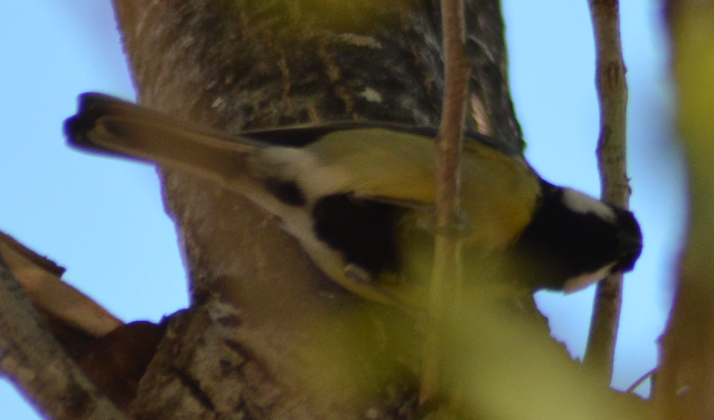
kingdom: Animalia
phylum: Chordata
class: Aves
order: Passeriformes
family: Paridae
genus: Parus
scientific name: Parus major
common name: Great tit
